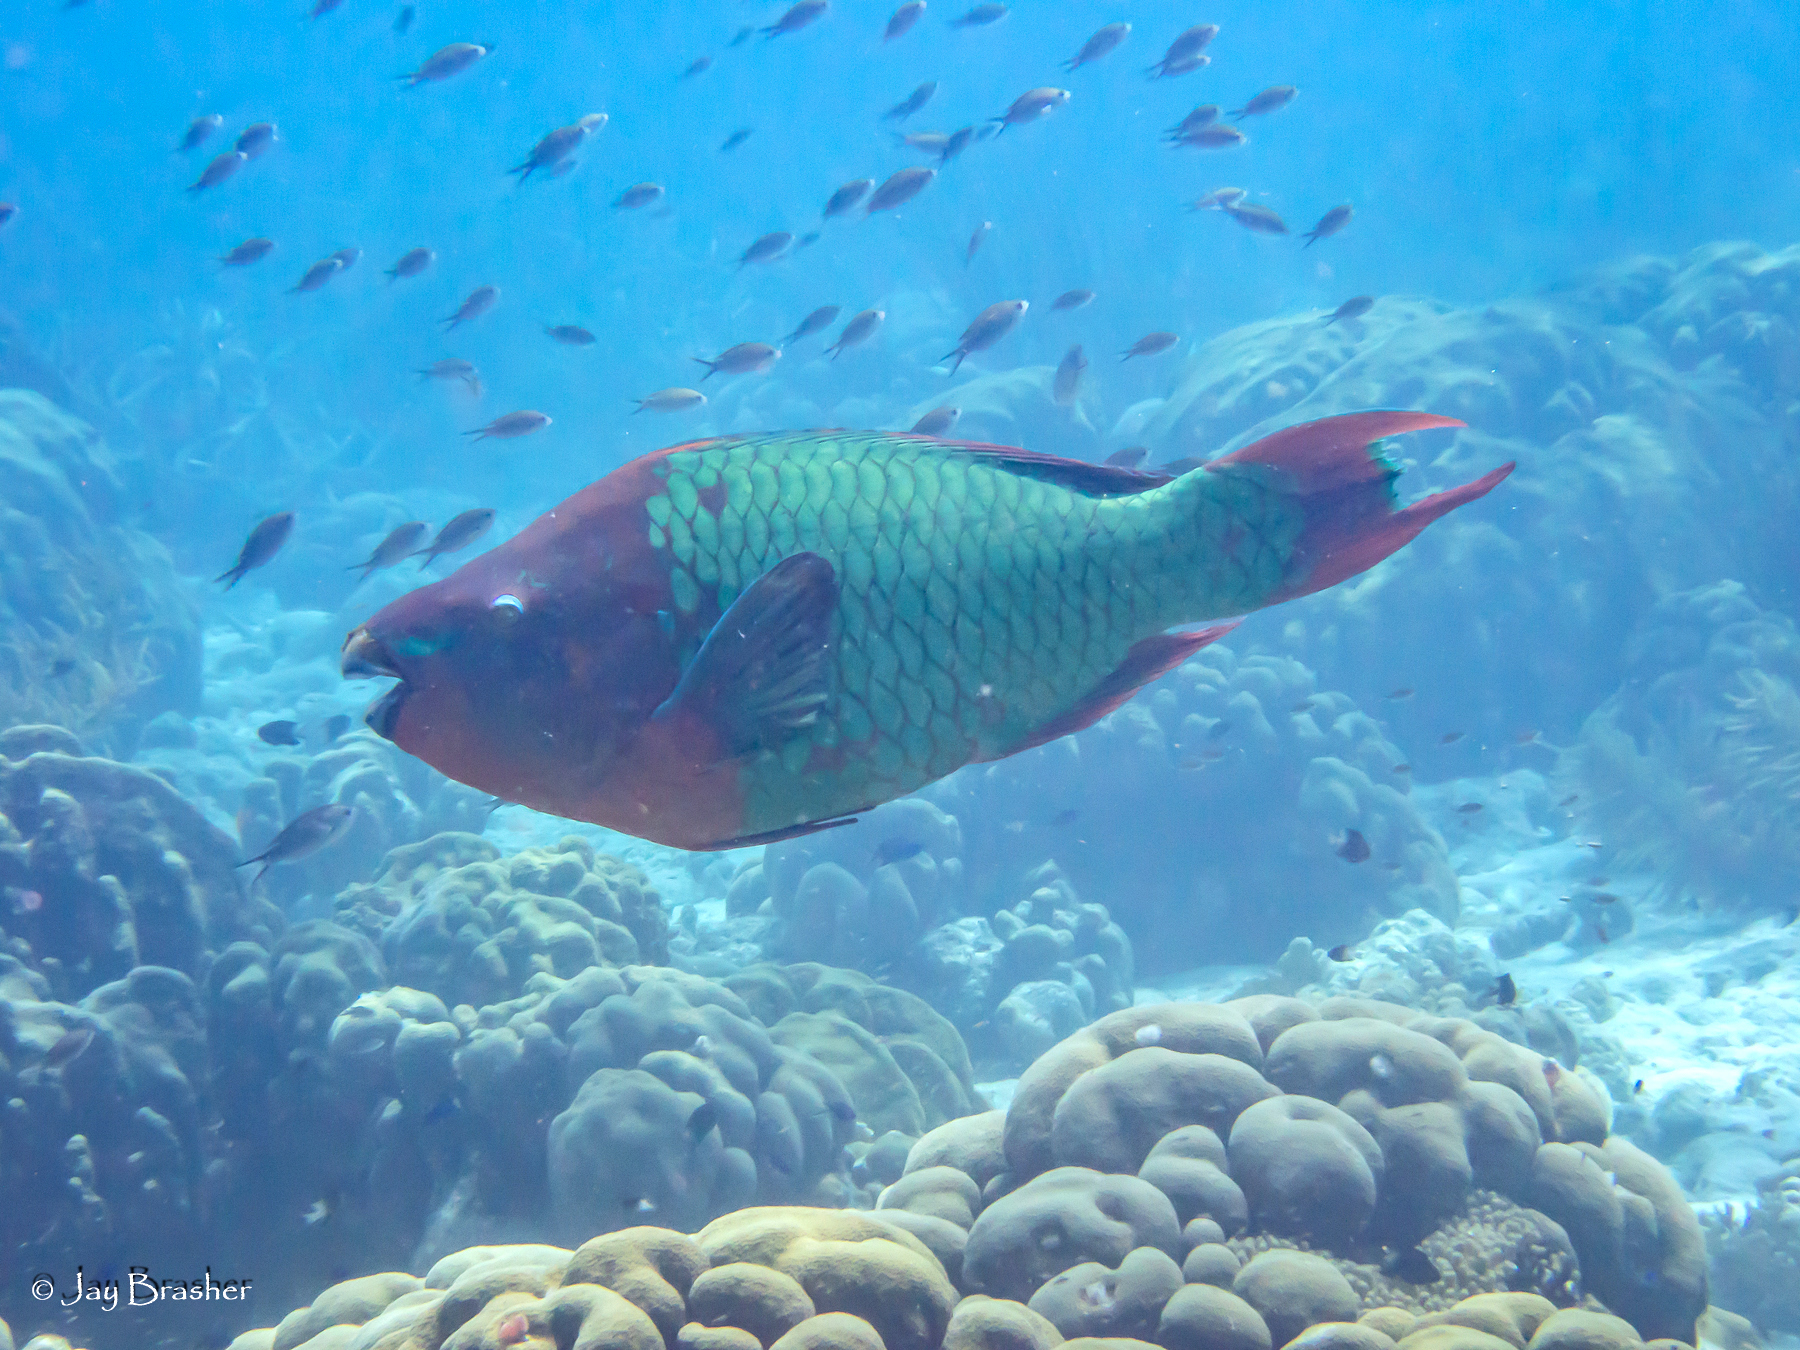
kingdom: Animalia
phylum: Chordata
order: Perciformes
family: Scaridae
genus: Scarus
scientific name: Scarus guacamaia
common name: Rainbow parrotfish
